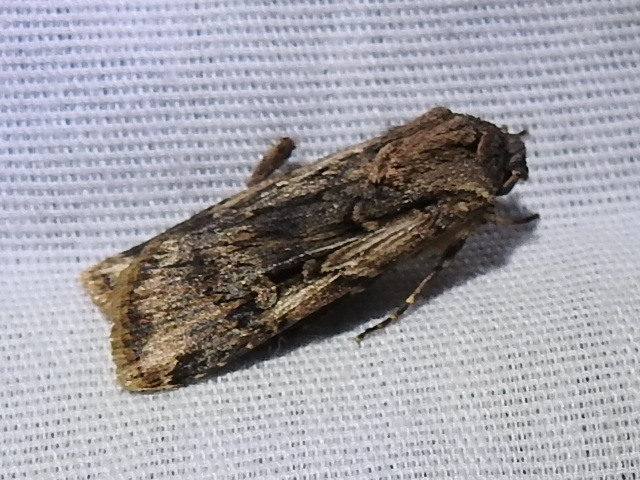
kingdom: Animalia
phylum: Arthropoda
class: Insecta
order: Lepidoptera
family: Noctuidae
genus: Feltia
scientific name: Feltia subterranea
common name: Granulate cutworm
